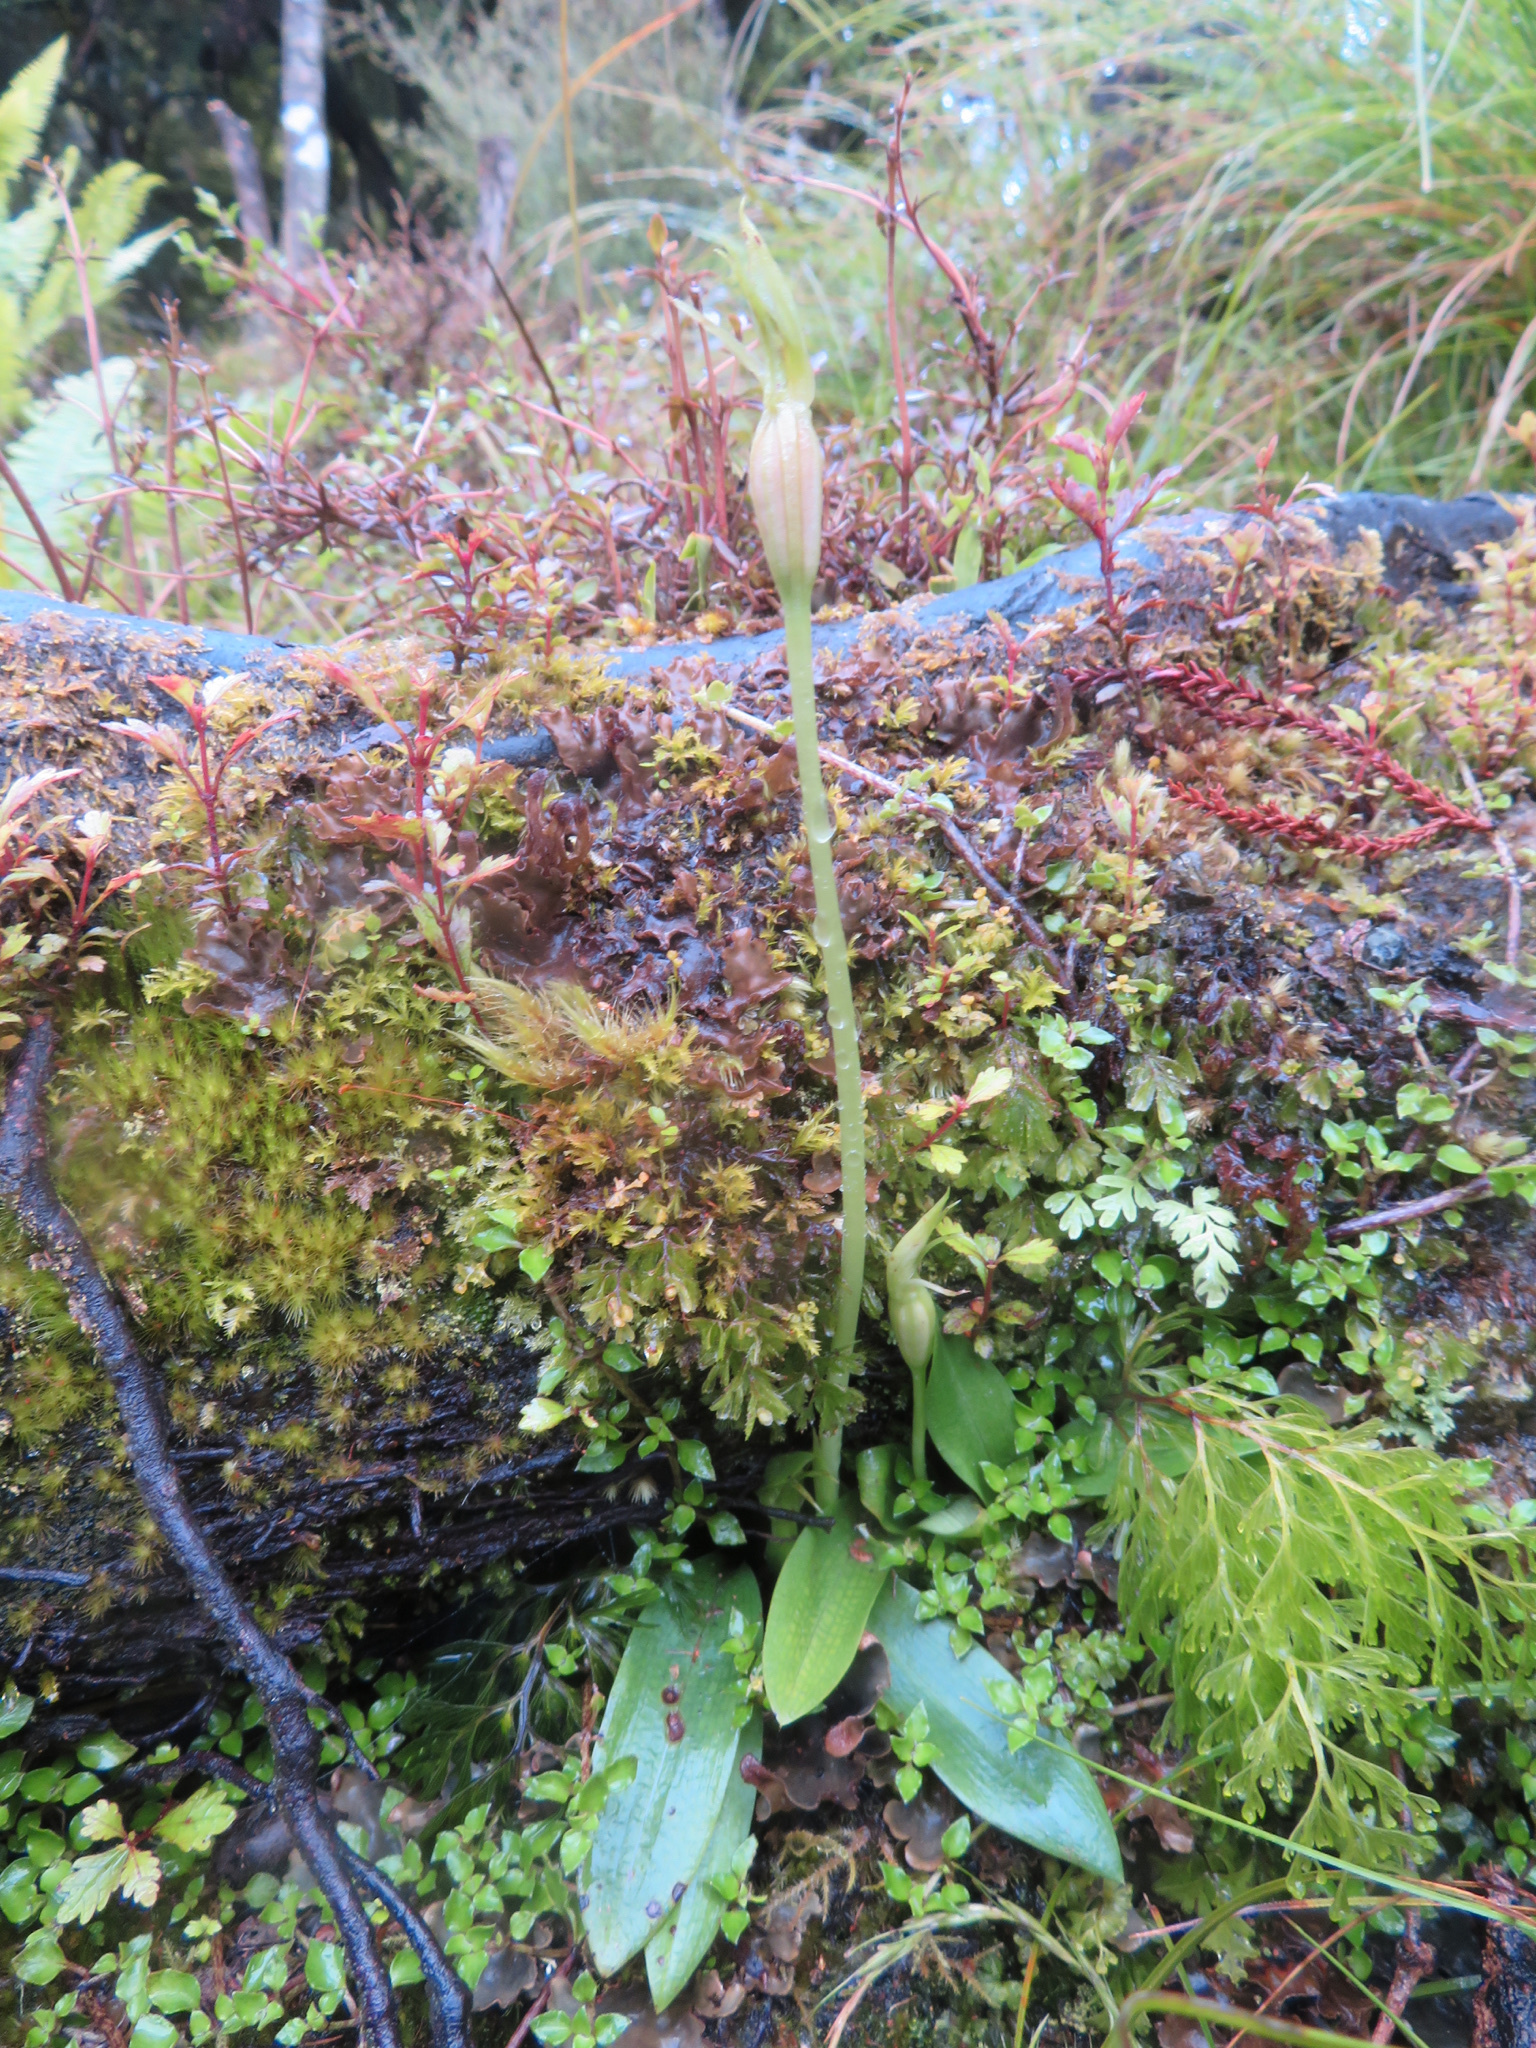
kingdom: Plantae
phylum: Tracheophyta
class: Liliopsida
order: Asparagales
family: Orchidaceae
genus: Chiloglottis
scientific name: Chiloglottis cornuta
